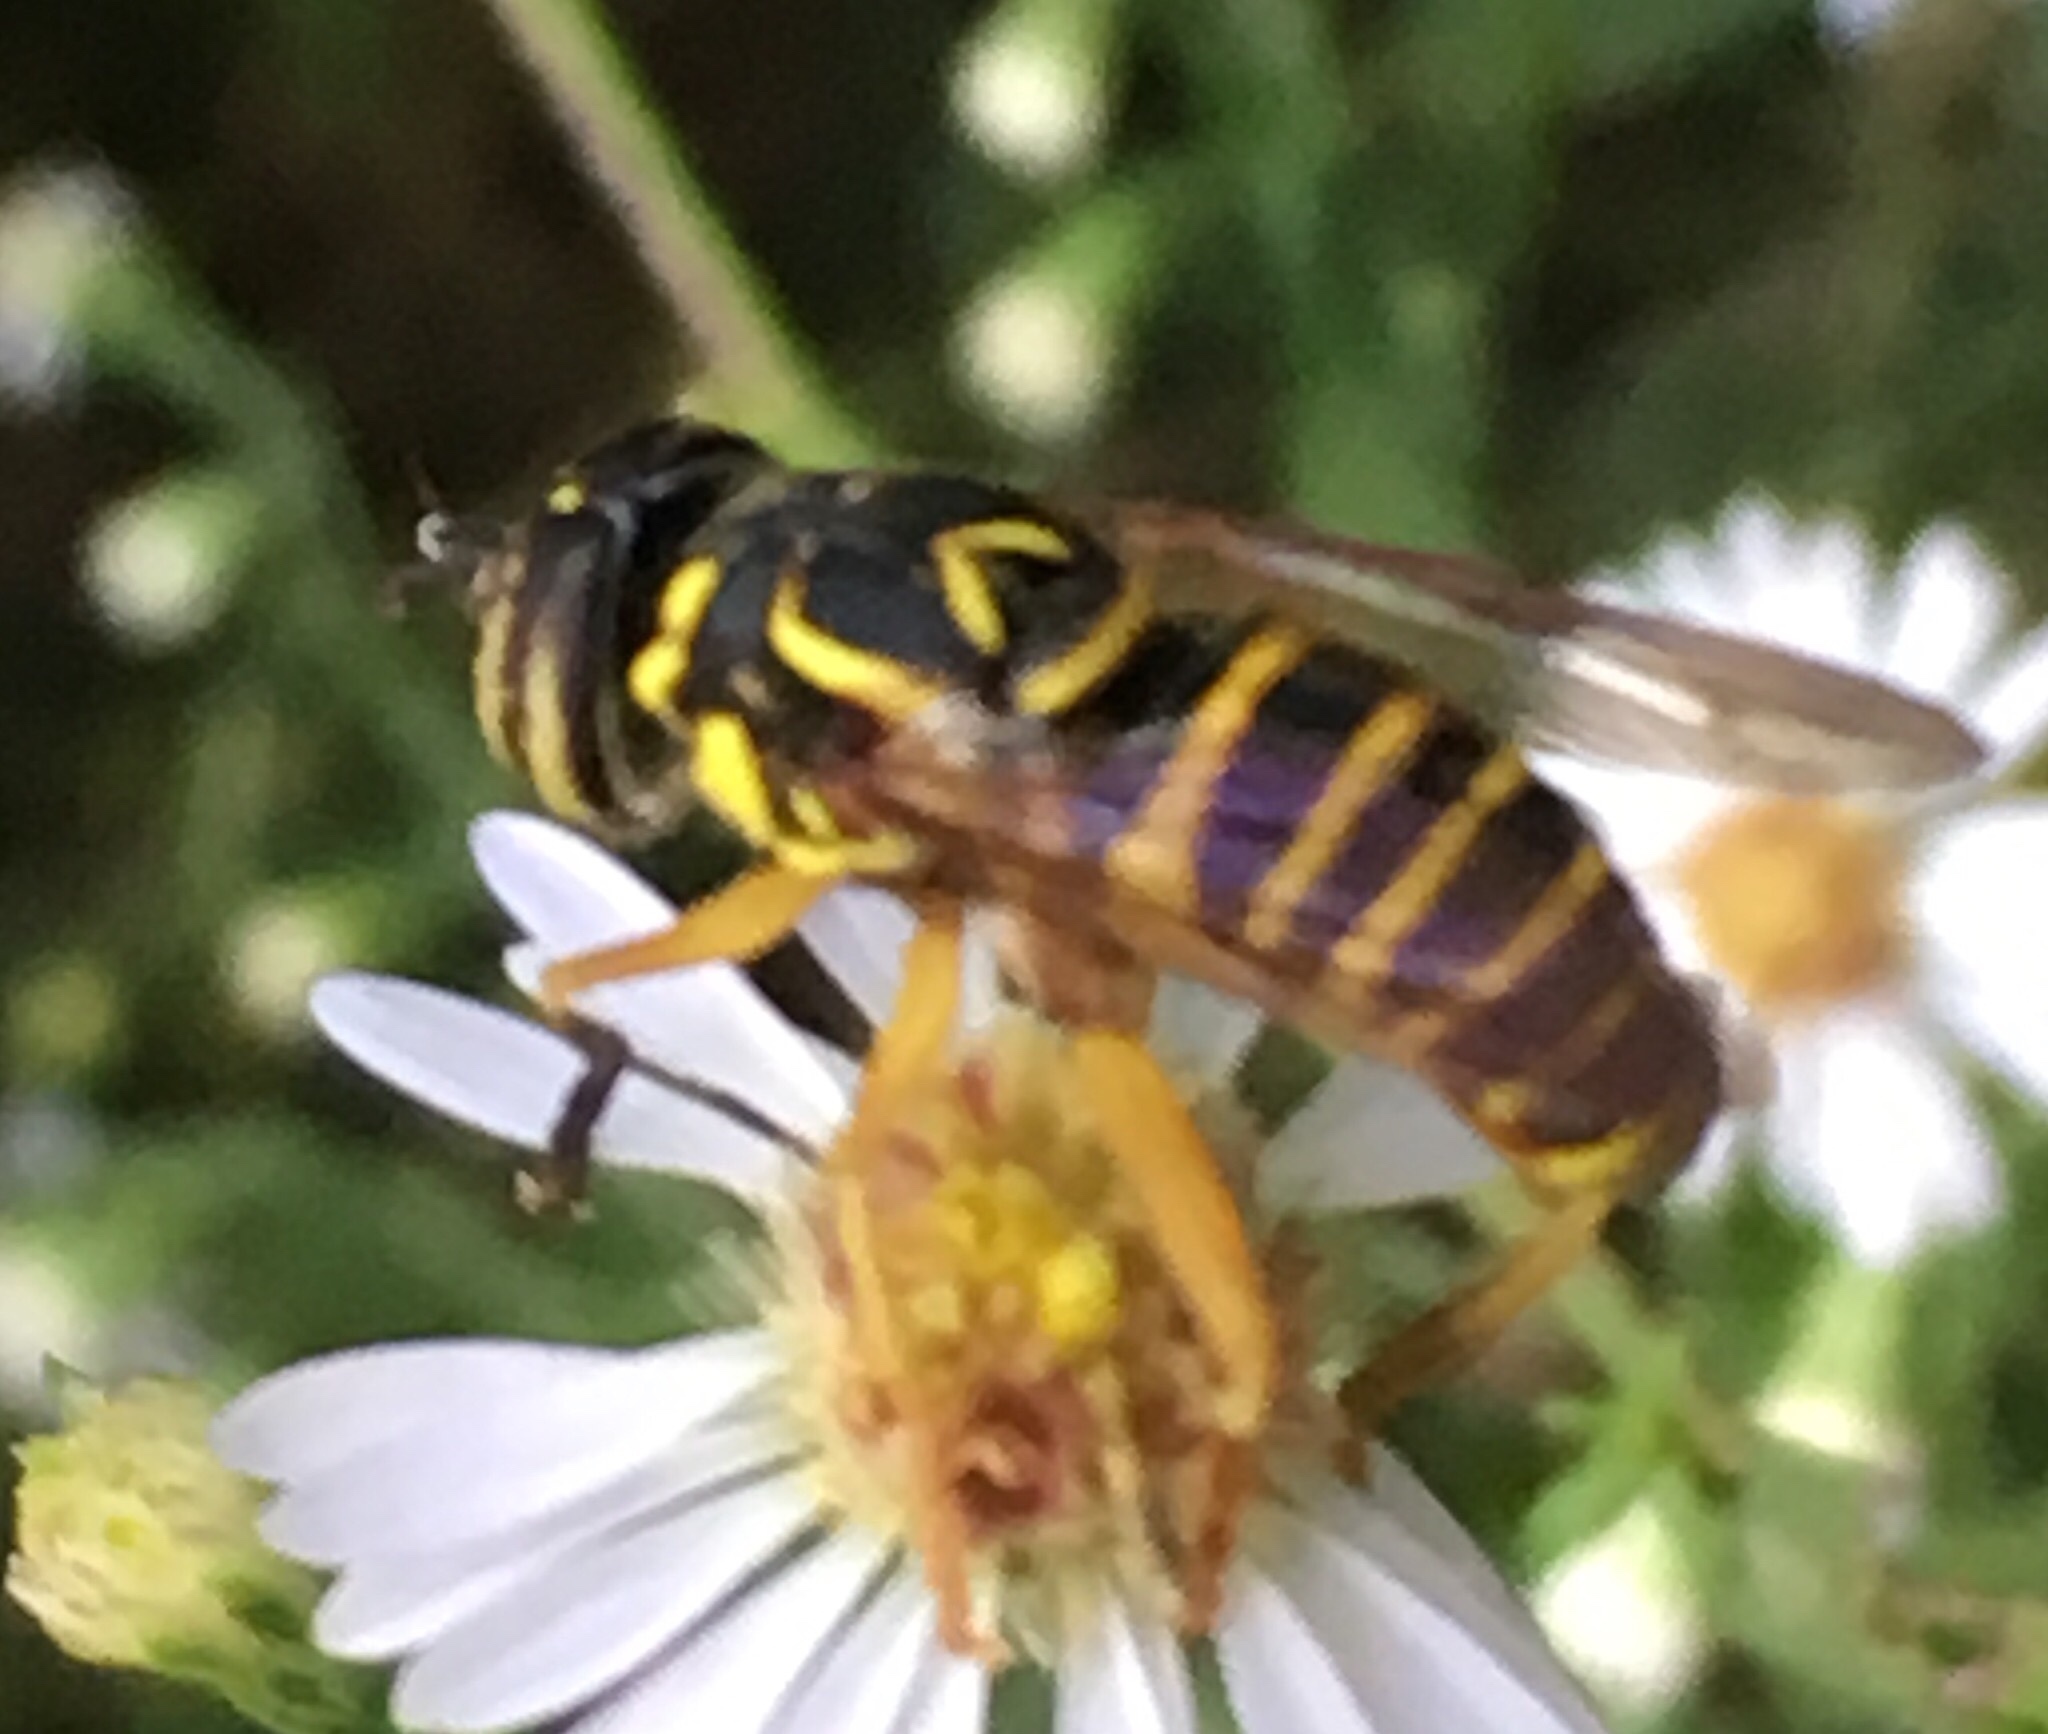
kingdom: Animalia
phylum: Arthropoda
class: Insecta
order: Diptera
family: Syrphidae
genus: Spilomyia
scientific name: Spilomyia longicornis
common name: Eastern hornet fly
